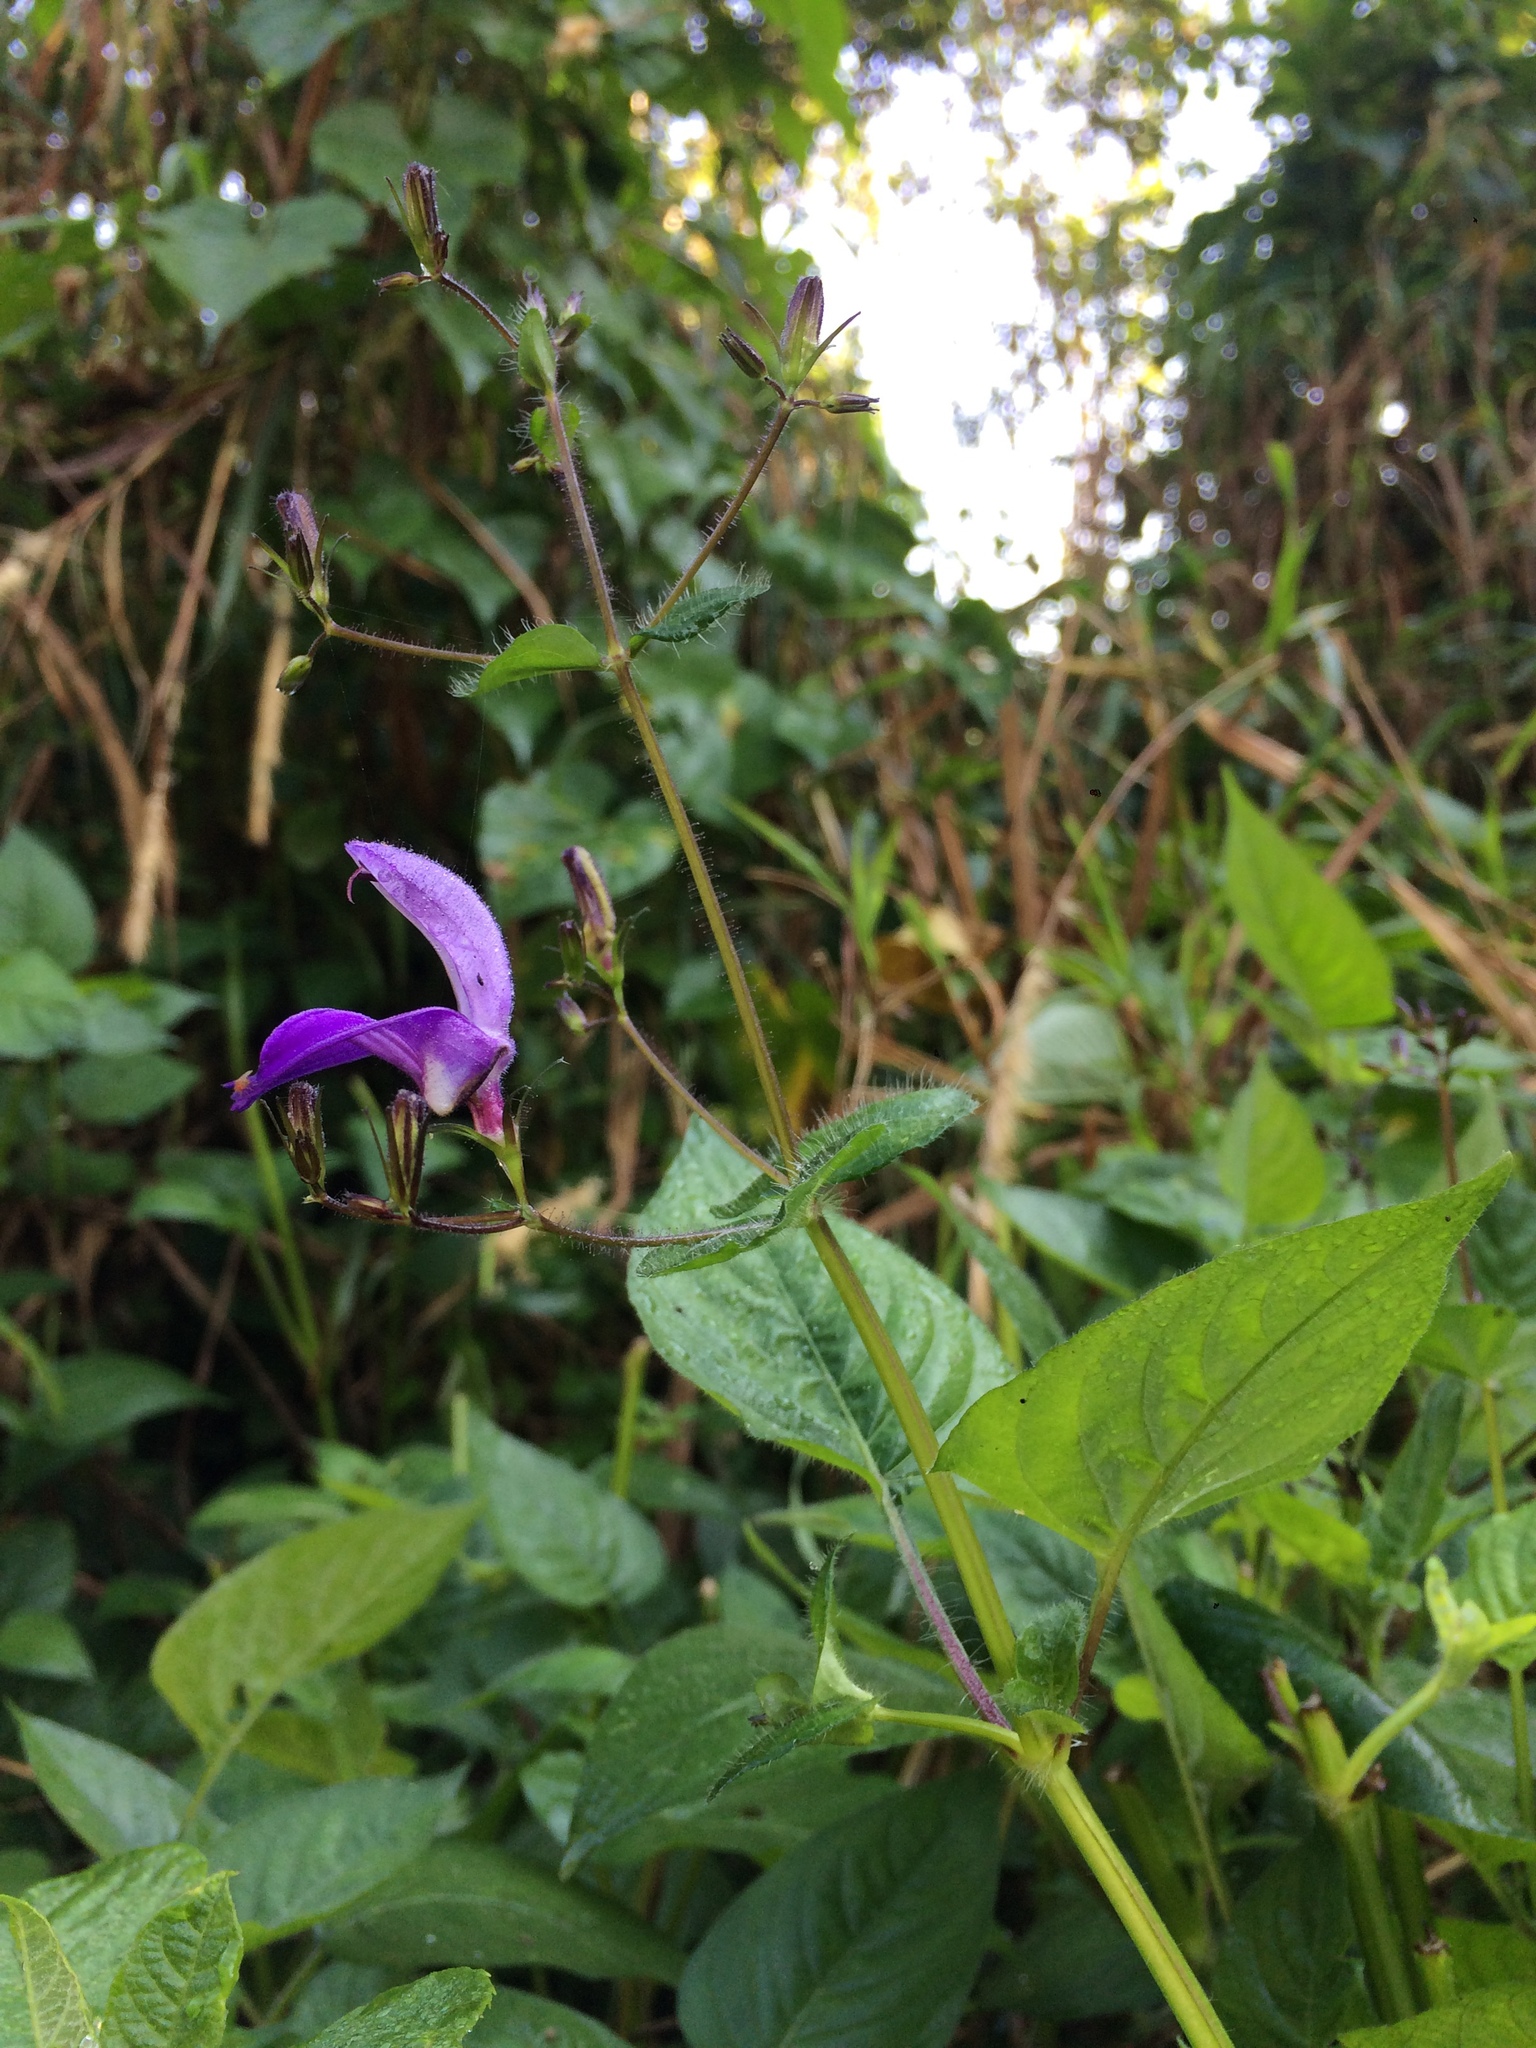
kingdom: Plantae
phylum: Tracheophyta
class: Magnoliopsida
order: Lamiales
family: Acanthaceae
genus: Brillantaisia
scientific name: Brillantaisia lamium
